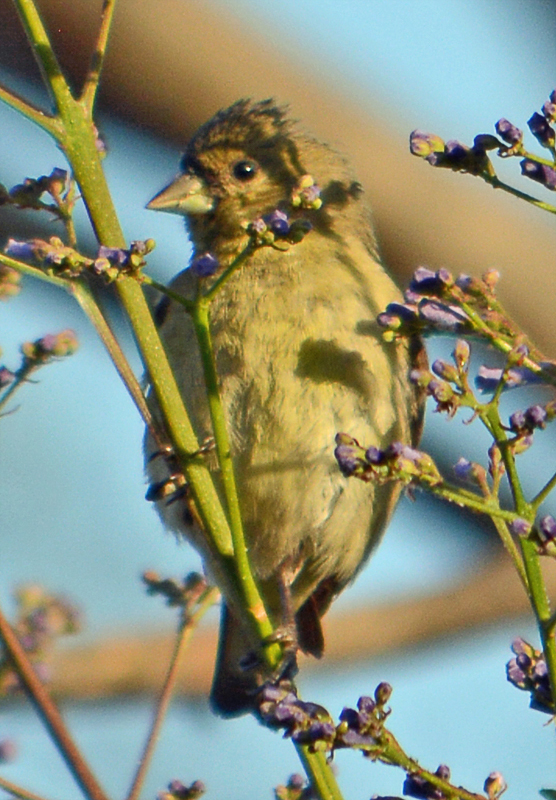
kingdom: Animalia
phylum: Chordata
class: Aves
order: Passeriformes
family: Fringillidae
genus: Spinus
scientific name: Spinus psaltria
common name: Lesser goldfinch
